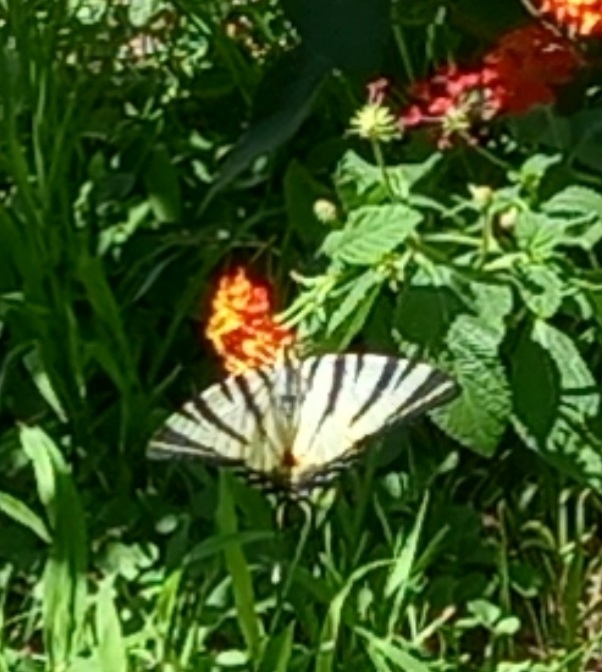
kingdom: Animalia
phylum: Arthropoda
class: Insecta
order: Lepidoptera
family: Papilionidae
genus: Iphiclides
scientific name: Iphiclides podalirius
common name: Scarce swallowtail
